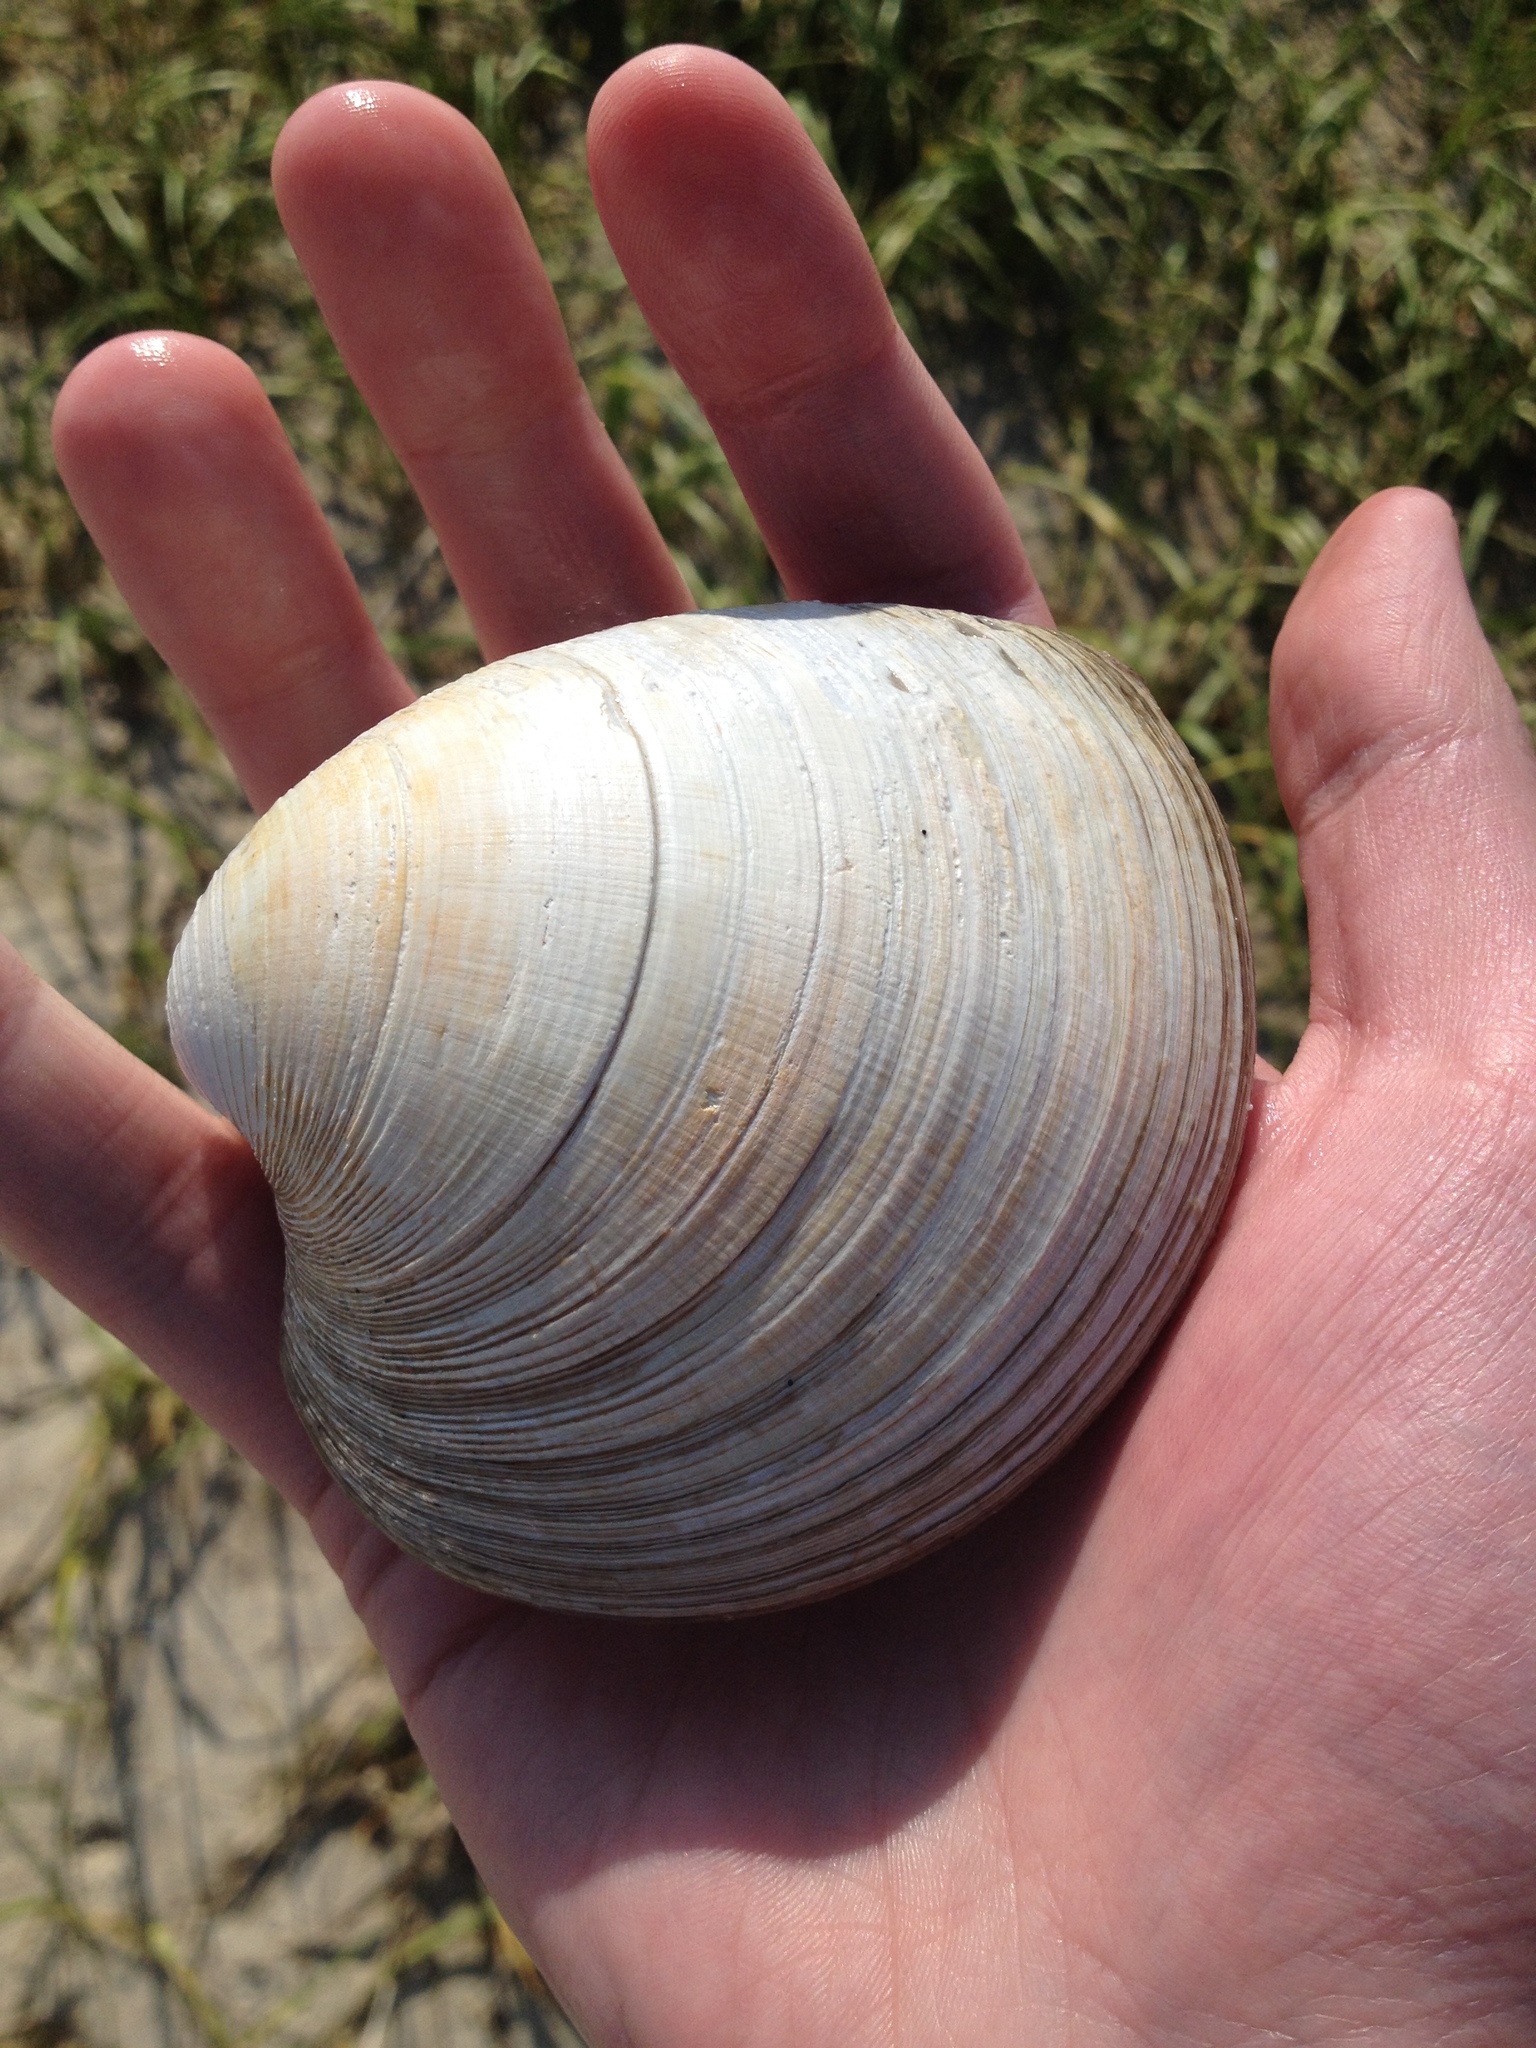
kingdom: Animalia
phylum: Mollusca
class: Bivalvia
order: Venerida
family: Veneridae
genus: Mercenaria
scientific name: Mercenaria mercenaria
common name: American hard-shelled clam
